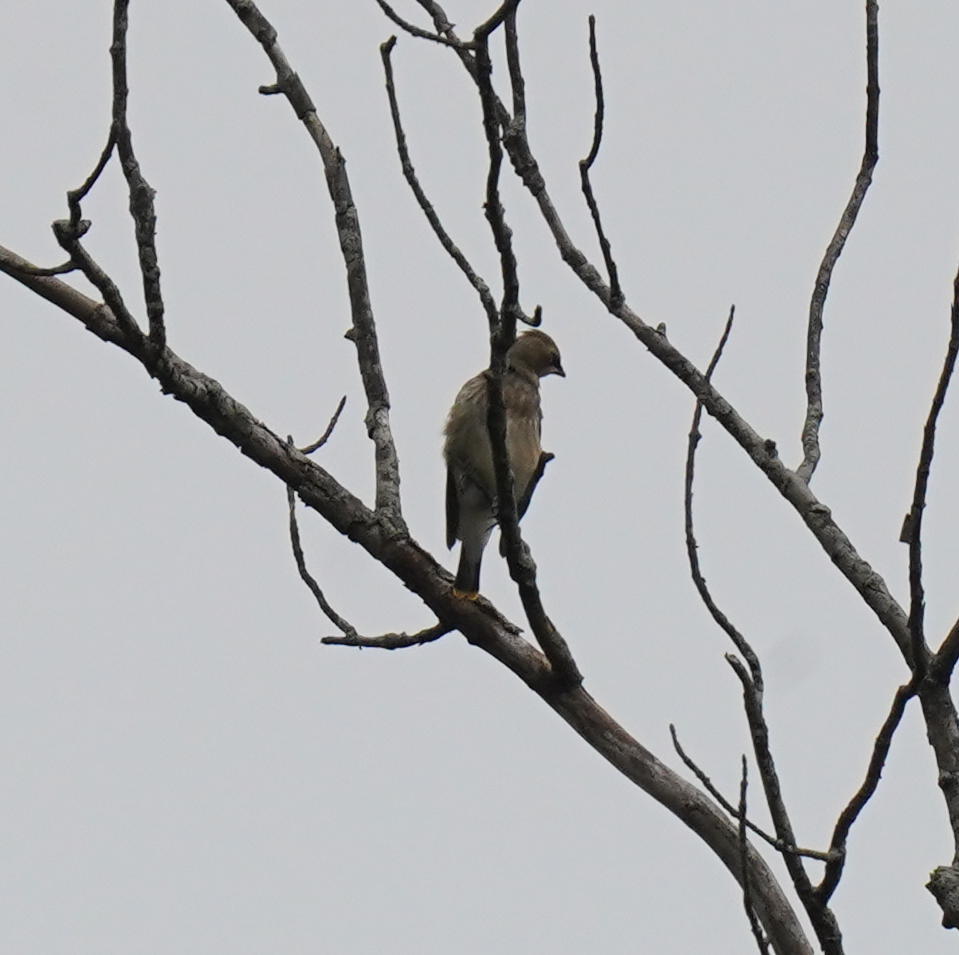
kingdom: Animalia
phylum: Chordata
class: Aves
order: Passeriformes
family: Bombycillidae
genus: Bombycilla
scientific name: Bombycilla cedrorum
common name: Cedar waxwing
